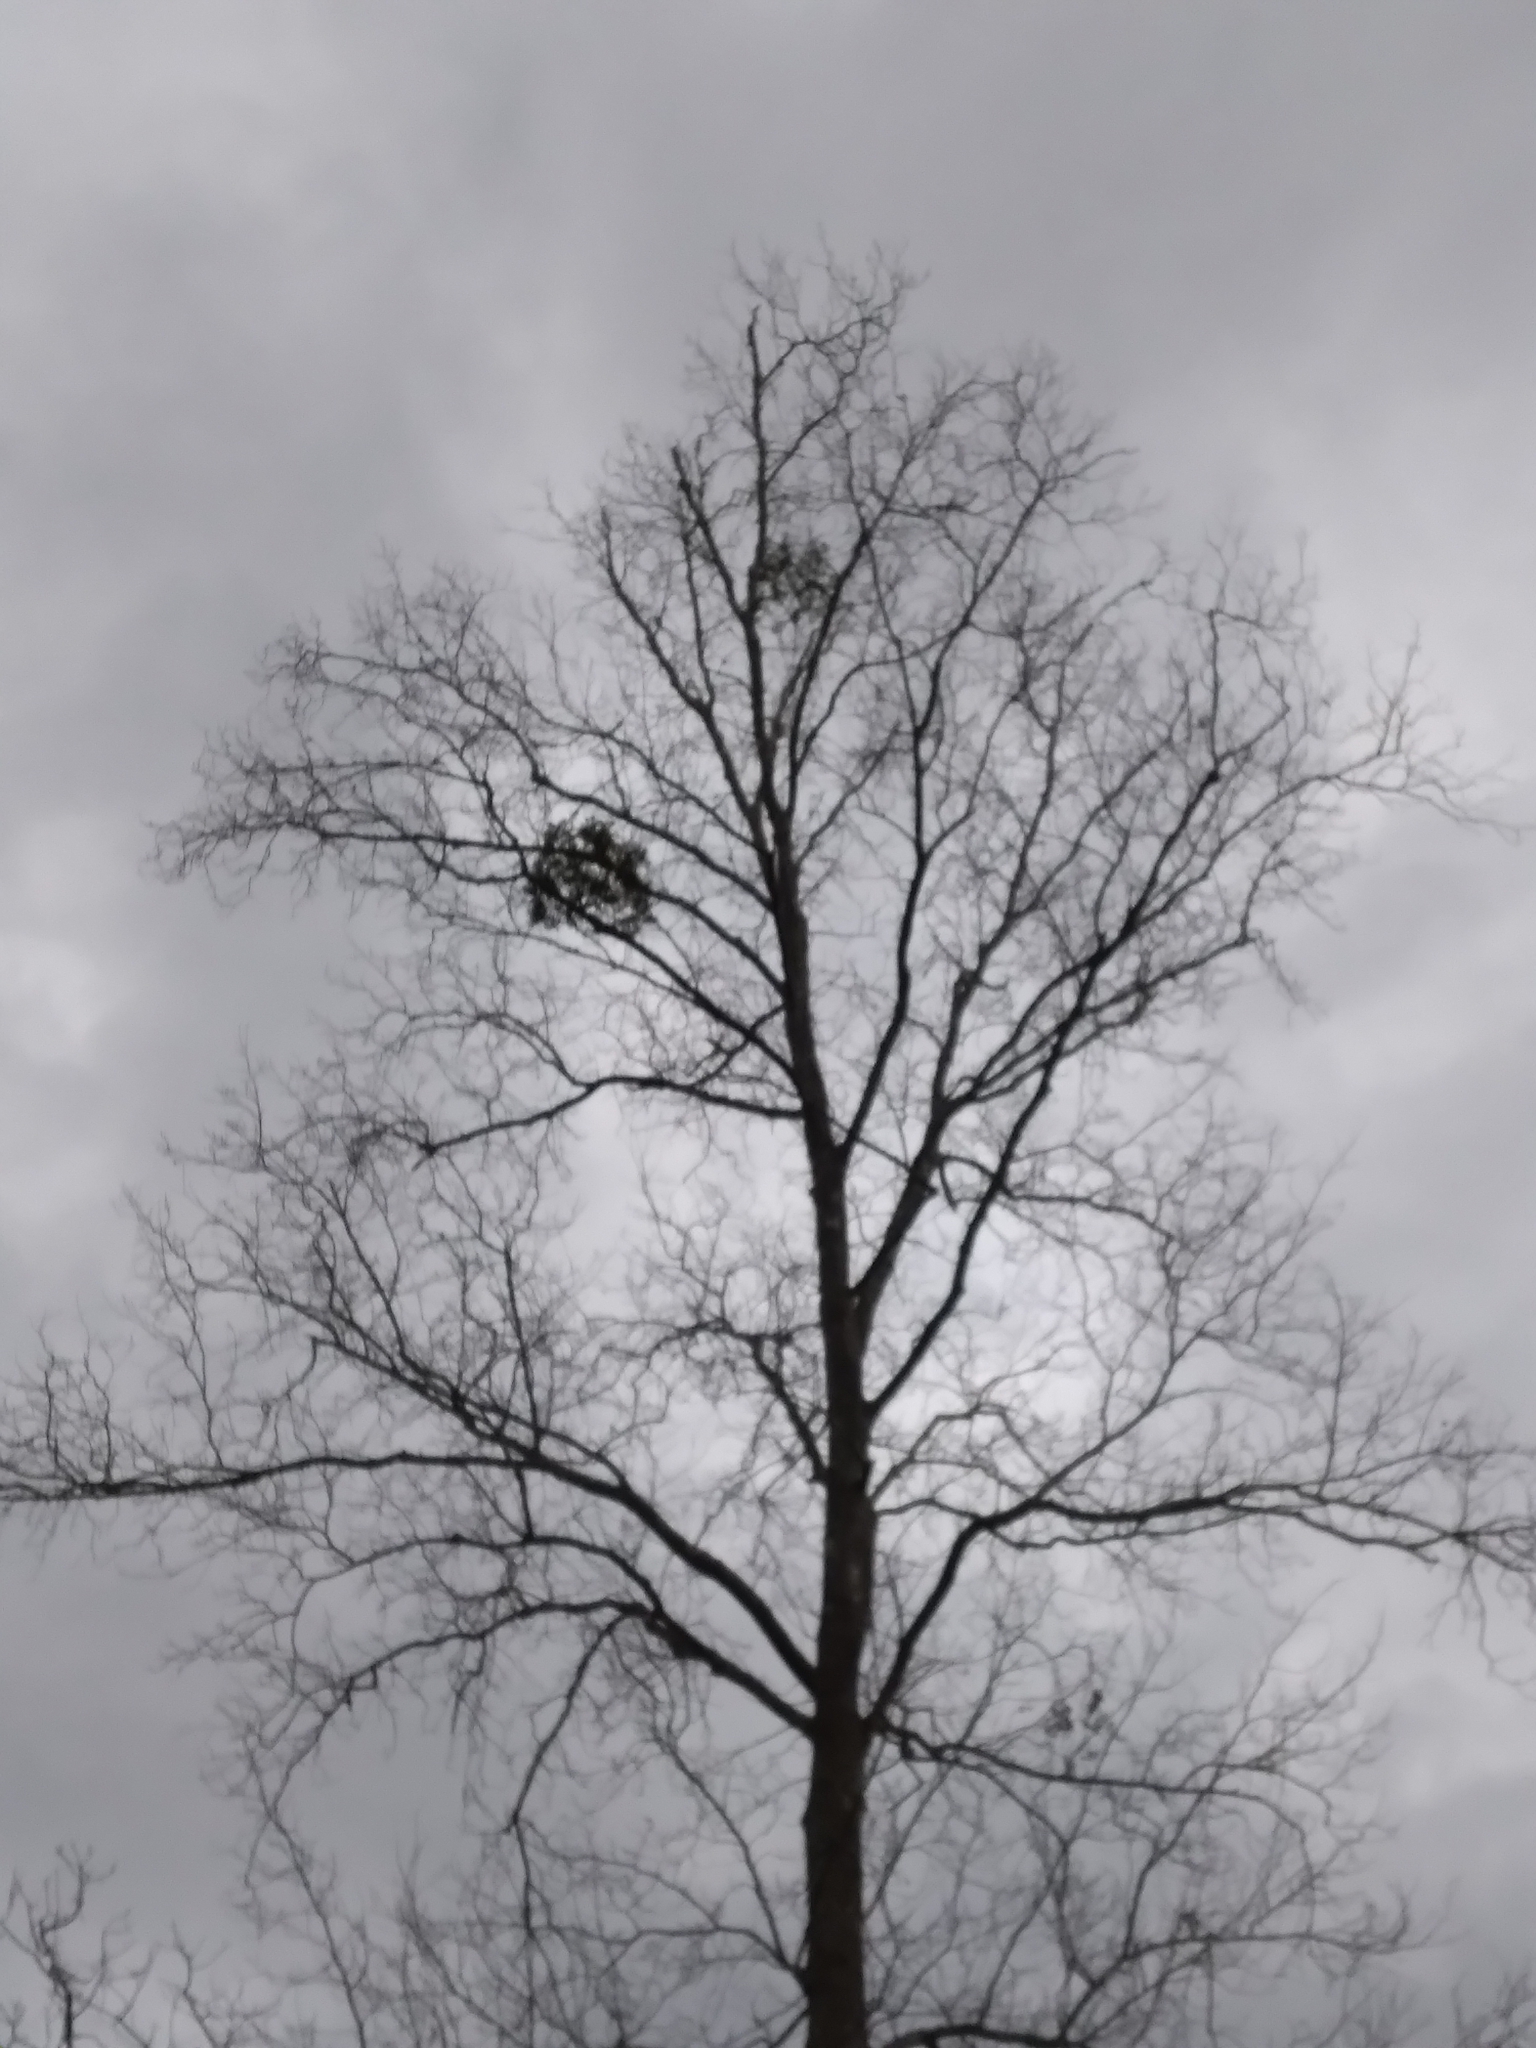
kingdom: Plantae
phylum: Tracheophyta
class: Magnoliopsida
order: Santalales
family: Viscaceae
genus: Phoradendron
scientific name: Phoradendron leucarpum
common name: Pacific mistletoe
